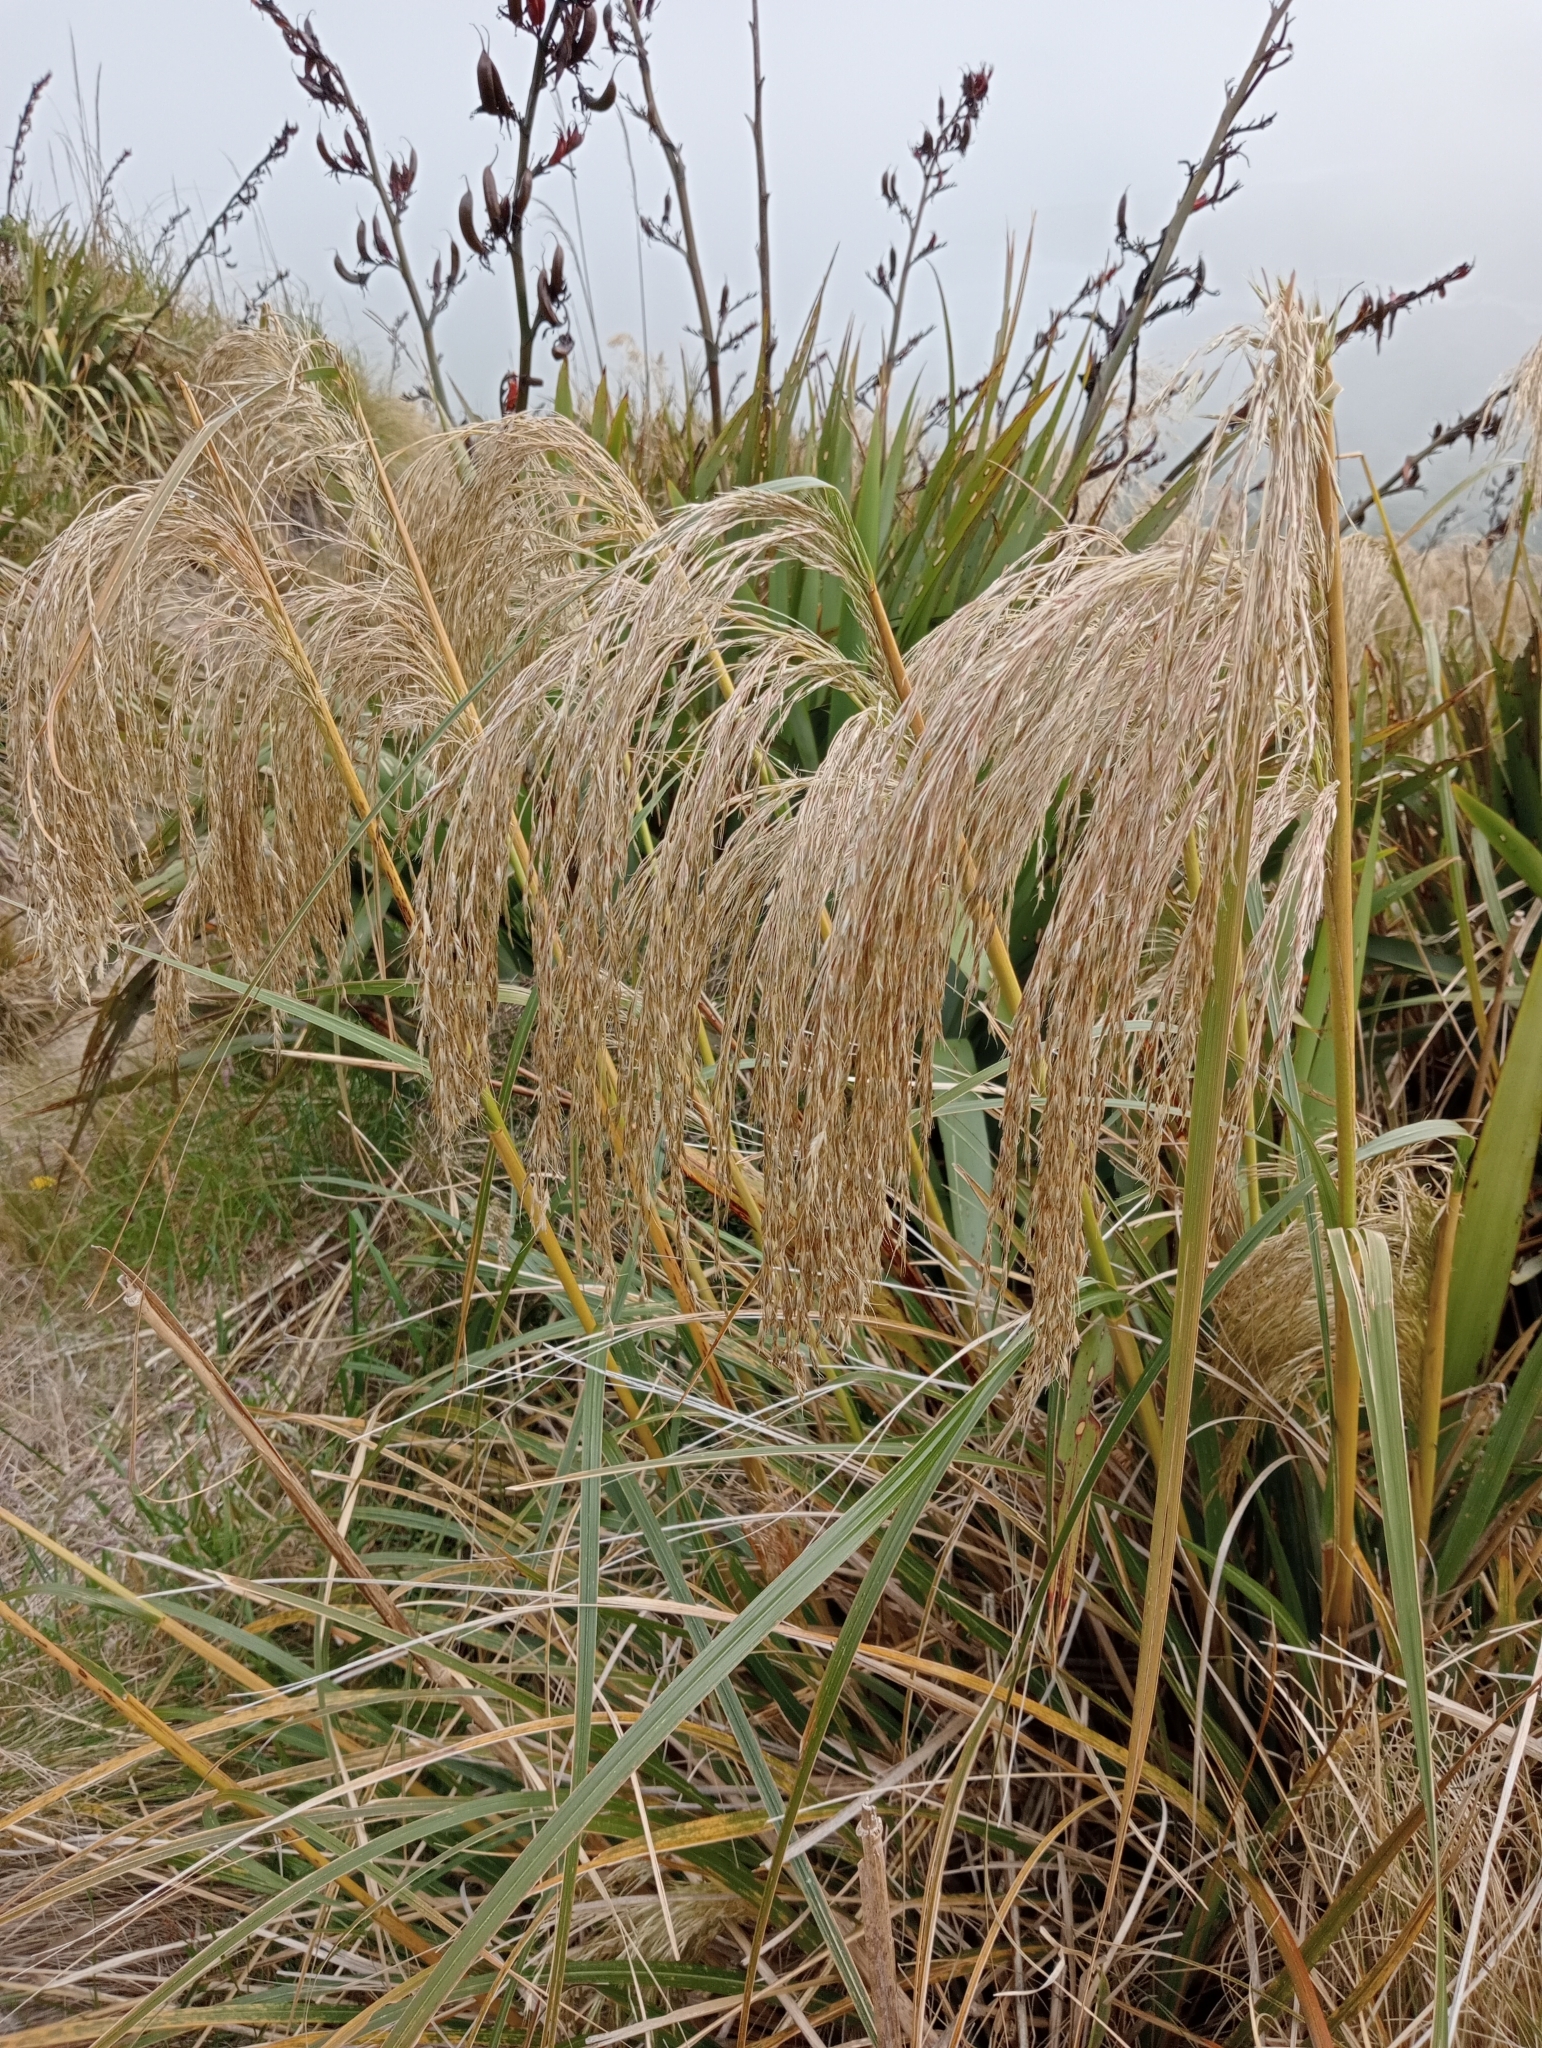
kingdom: Plantae
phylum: Tracheophyta
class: Liliopsida
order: Poales
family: Poaceae
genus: Chionochloa
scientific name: Chionochloa conspicua
